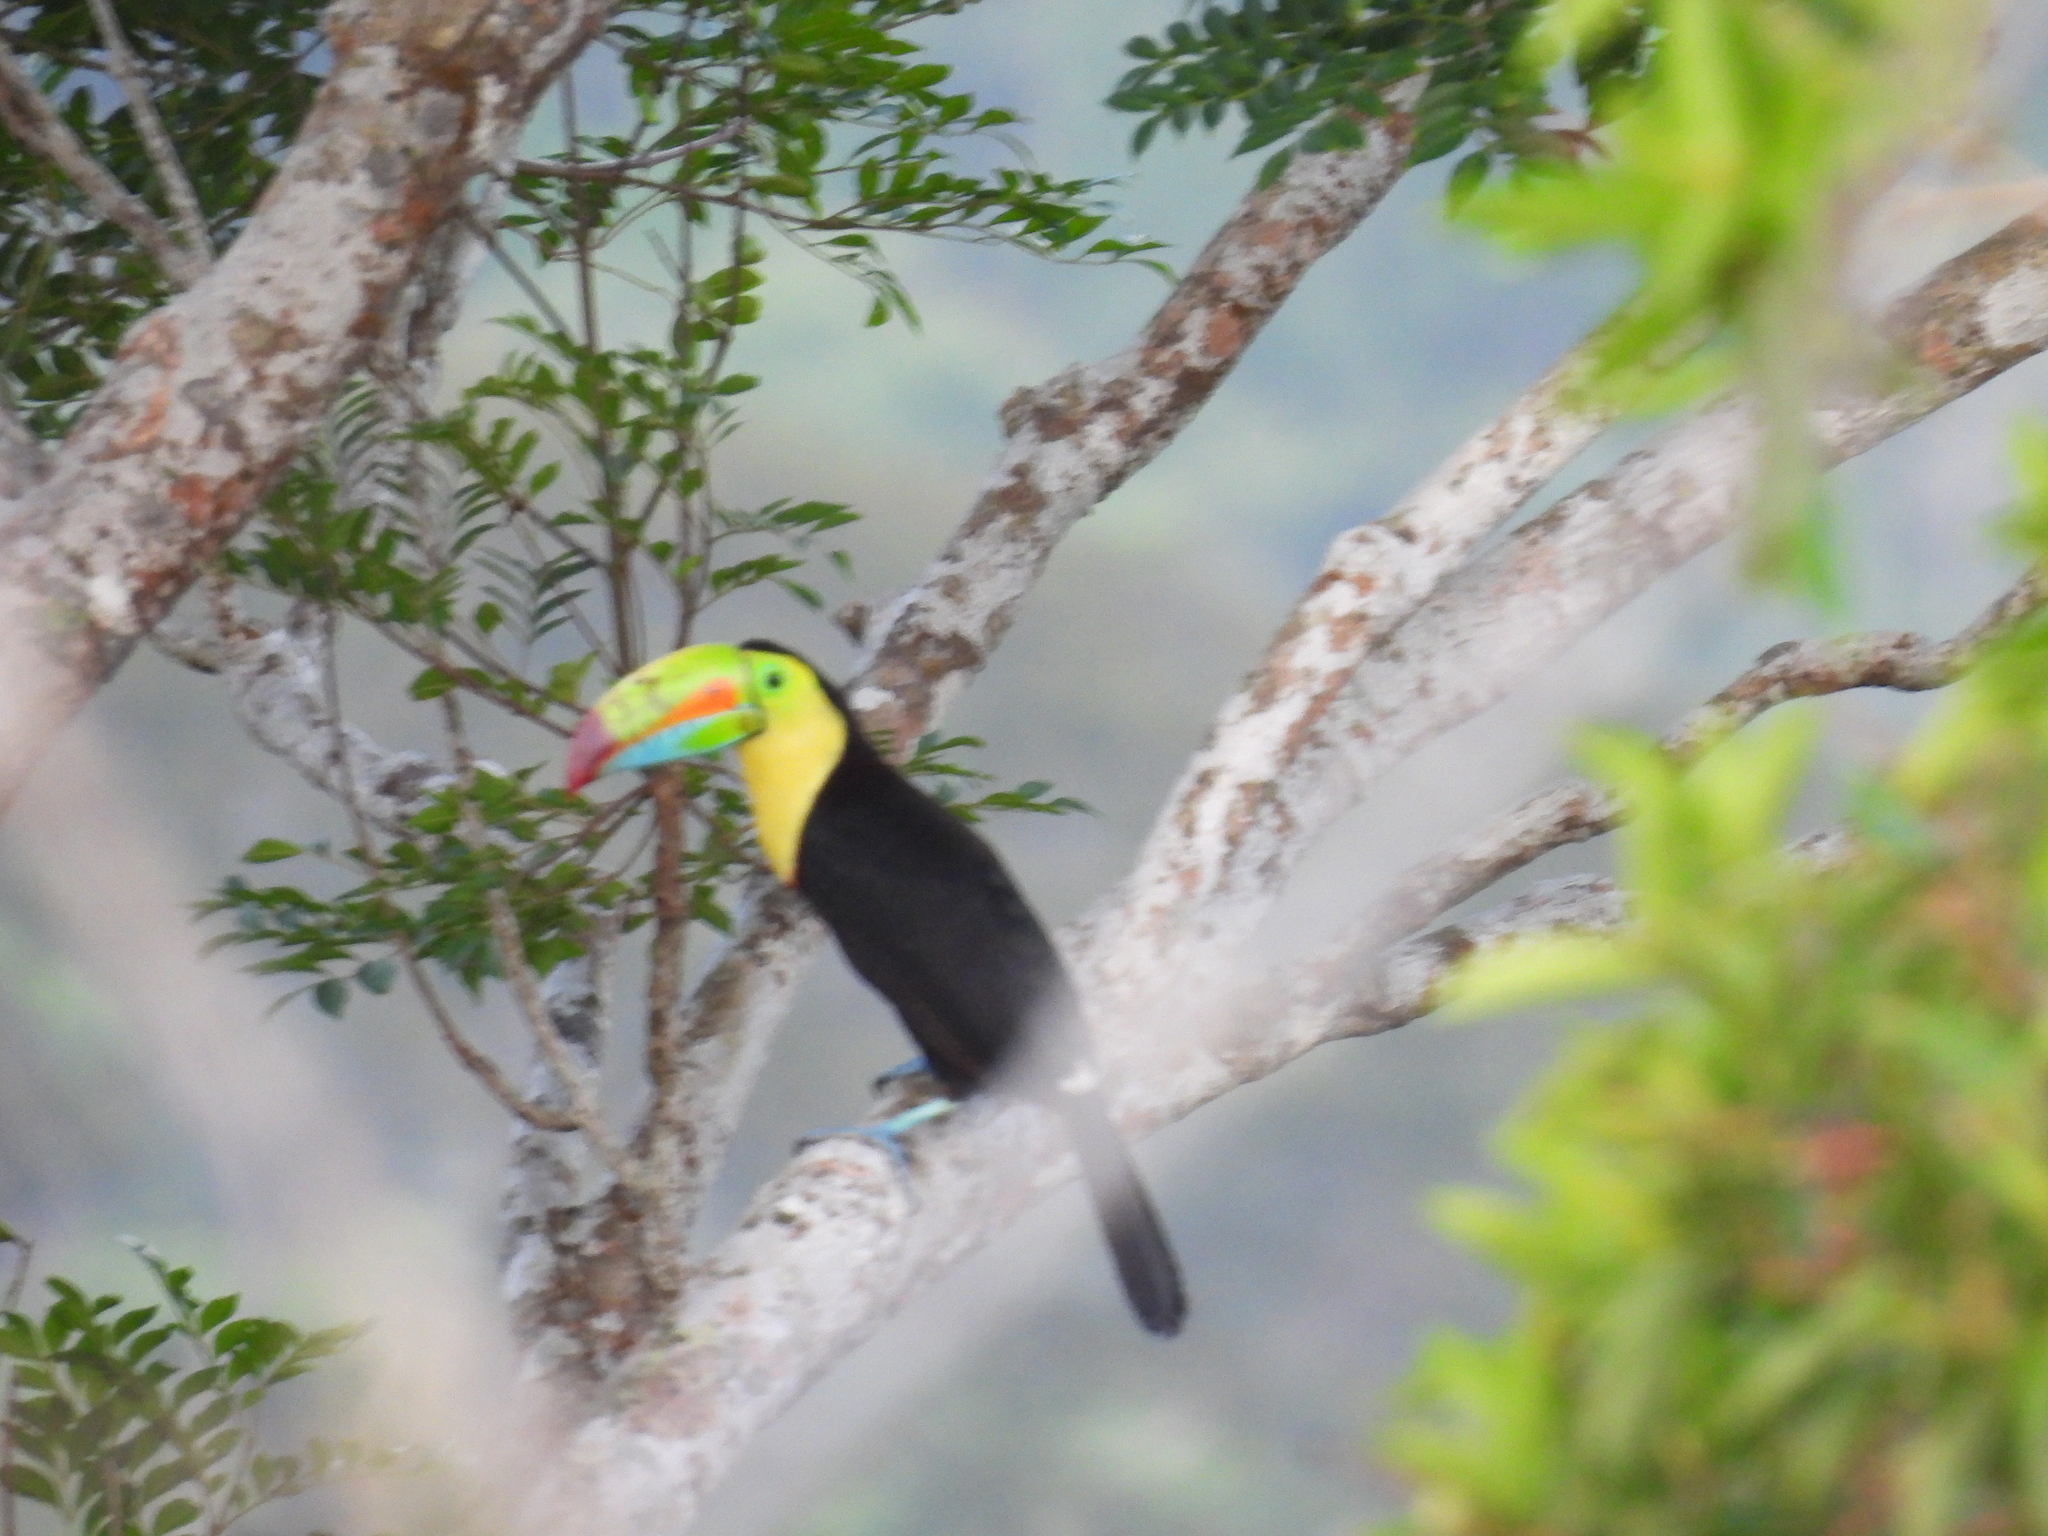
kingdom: Animalia
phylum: Chordata
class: Aves
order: Piciformes
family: Ramphastidae
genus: Ramphastos
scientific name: Ramphastos sulfuratus
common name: Keel-billed toucan
